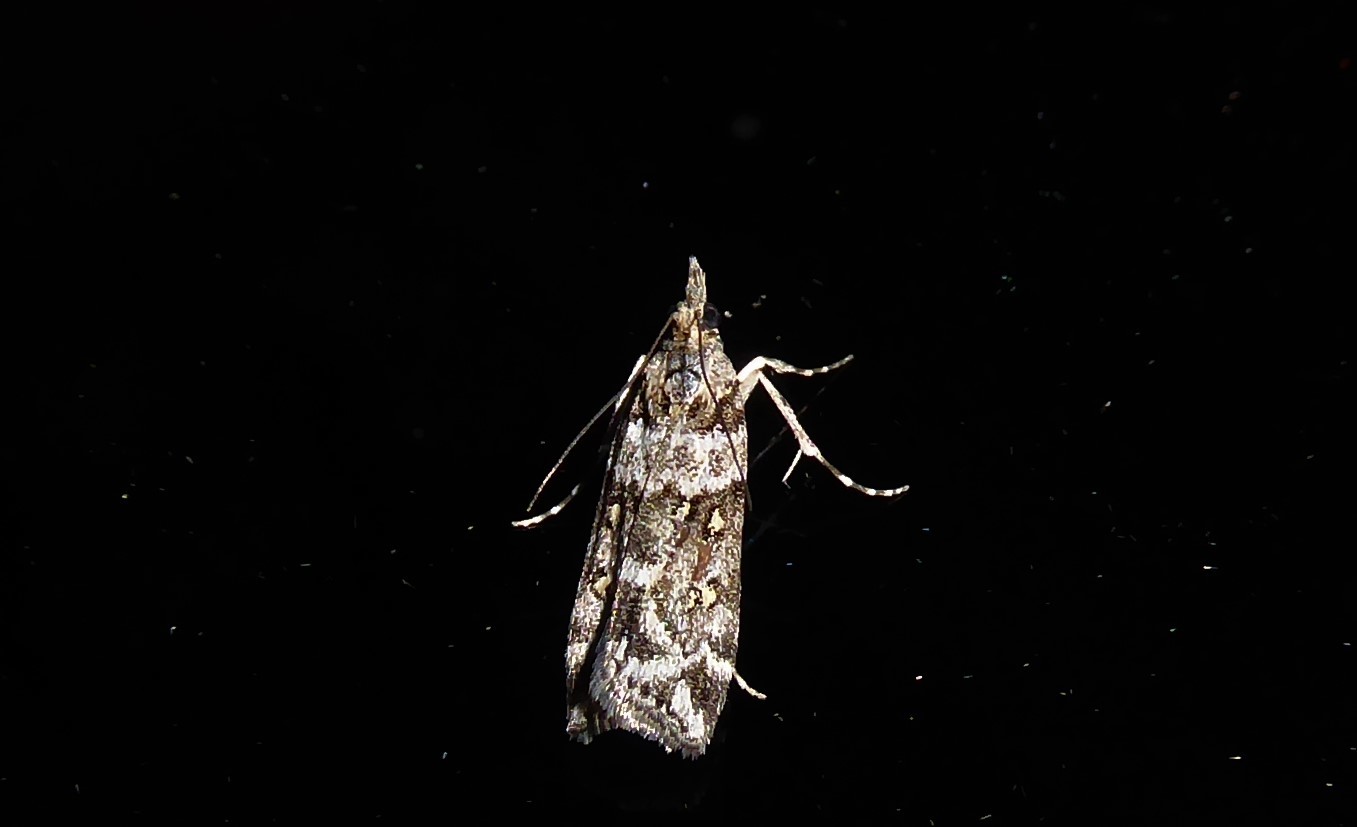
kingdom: Animalia
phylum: Arthropoda
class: Insecta
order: Lepidoptera
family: Crambidae
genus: Eudonia
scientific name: Eudonia diphtheralis
